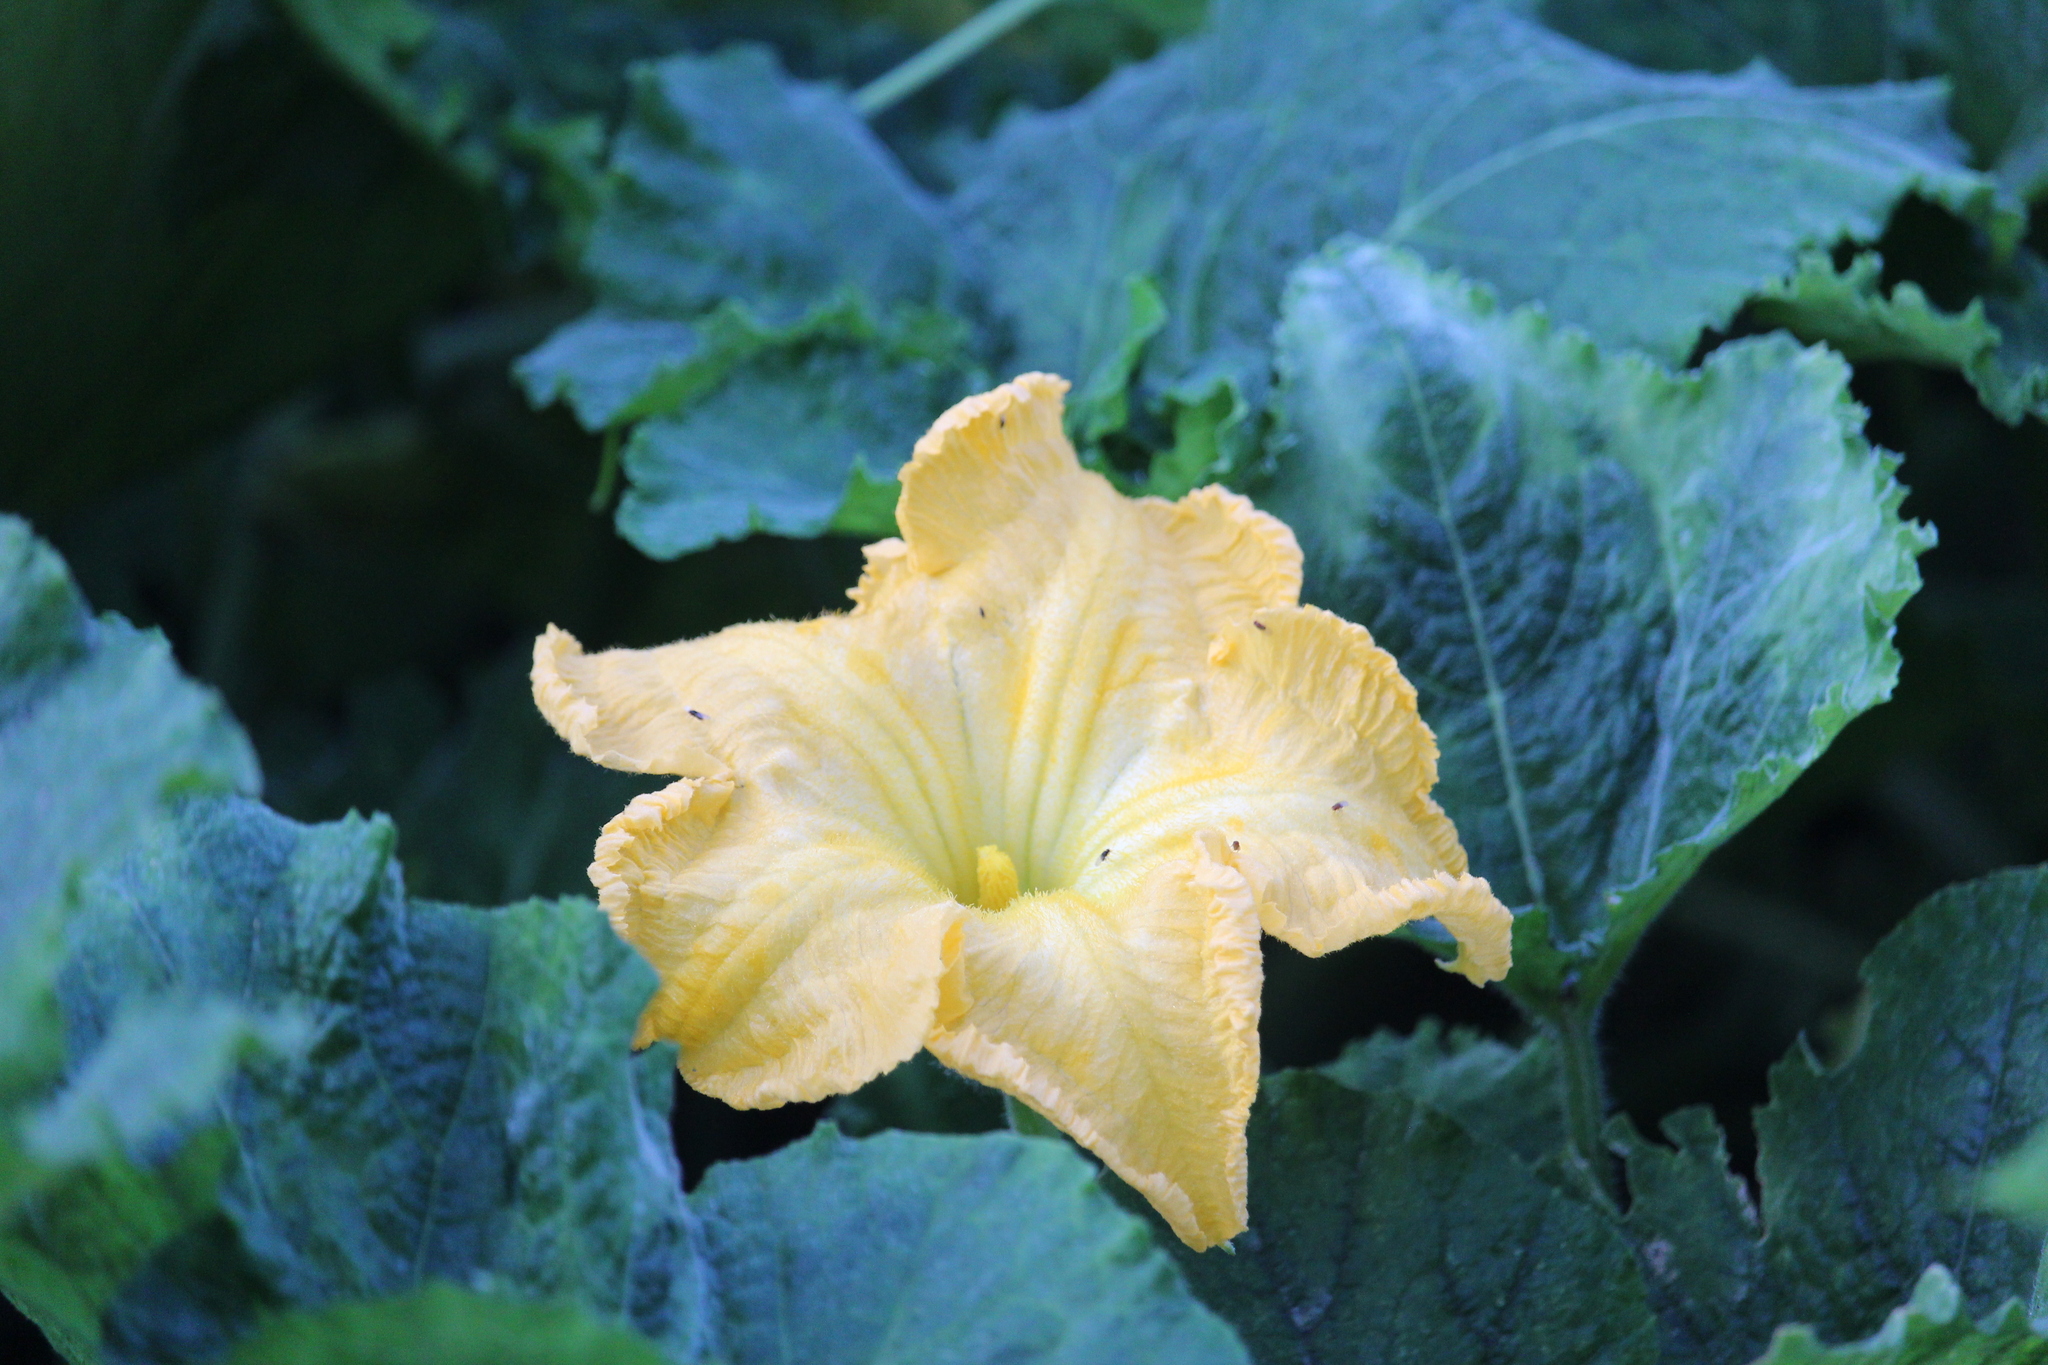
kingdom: Plantae
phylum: Tracheophyta
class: Magnoliopsida
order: Cucurbitales
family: Cucurbitaceae
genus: Cucurbita
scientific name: Cucurbita ficifolia
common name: Figleaf gourd
